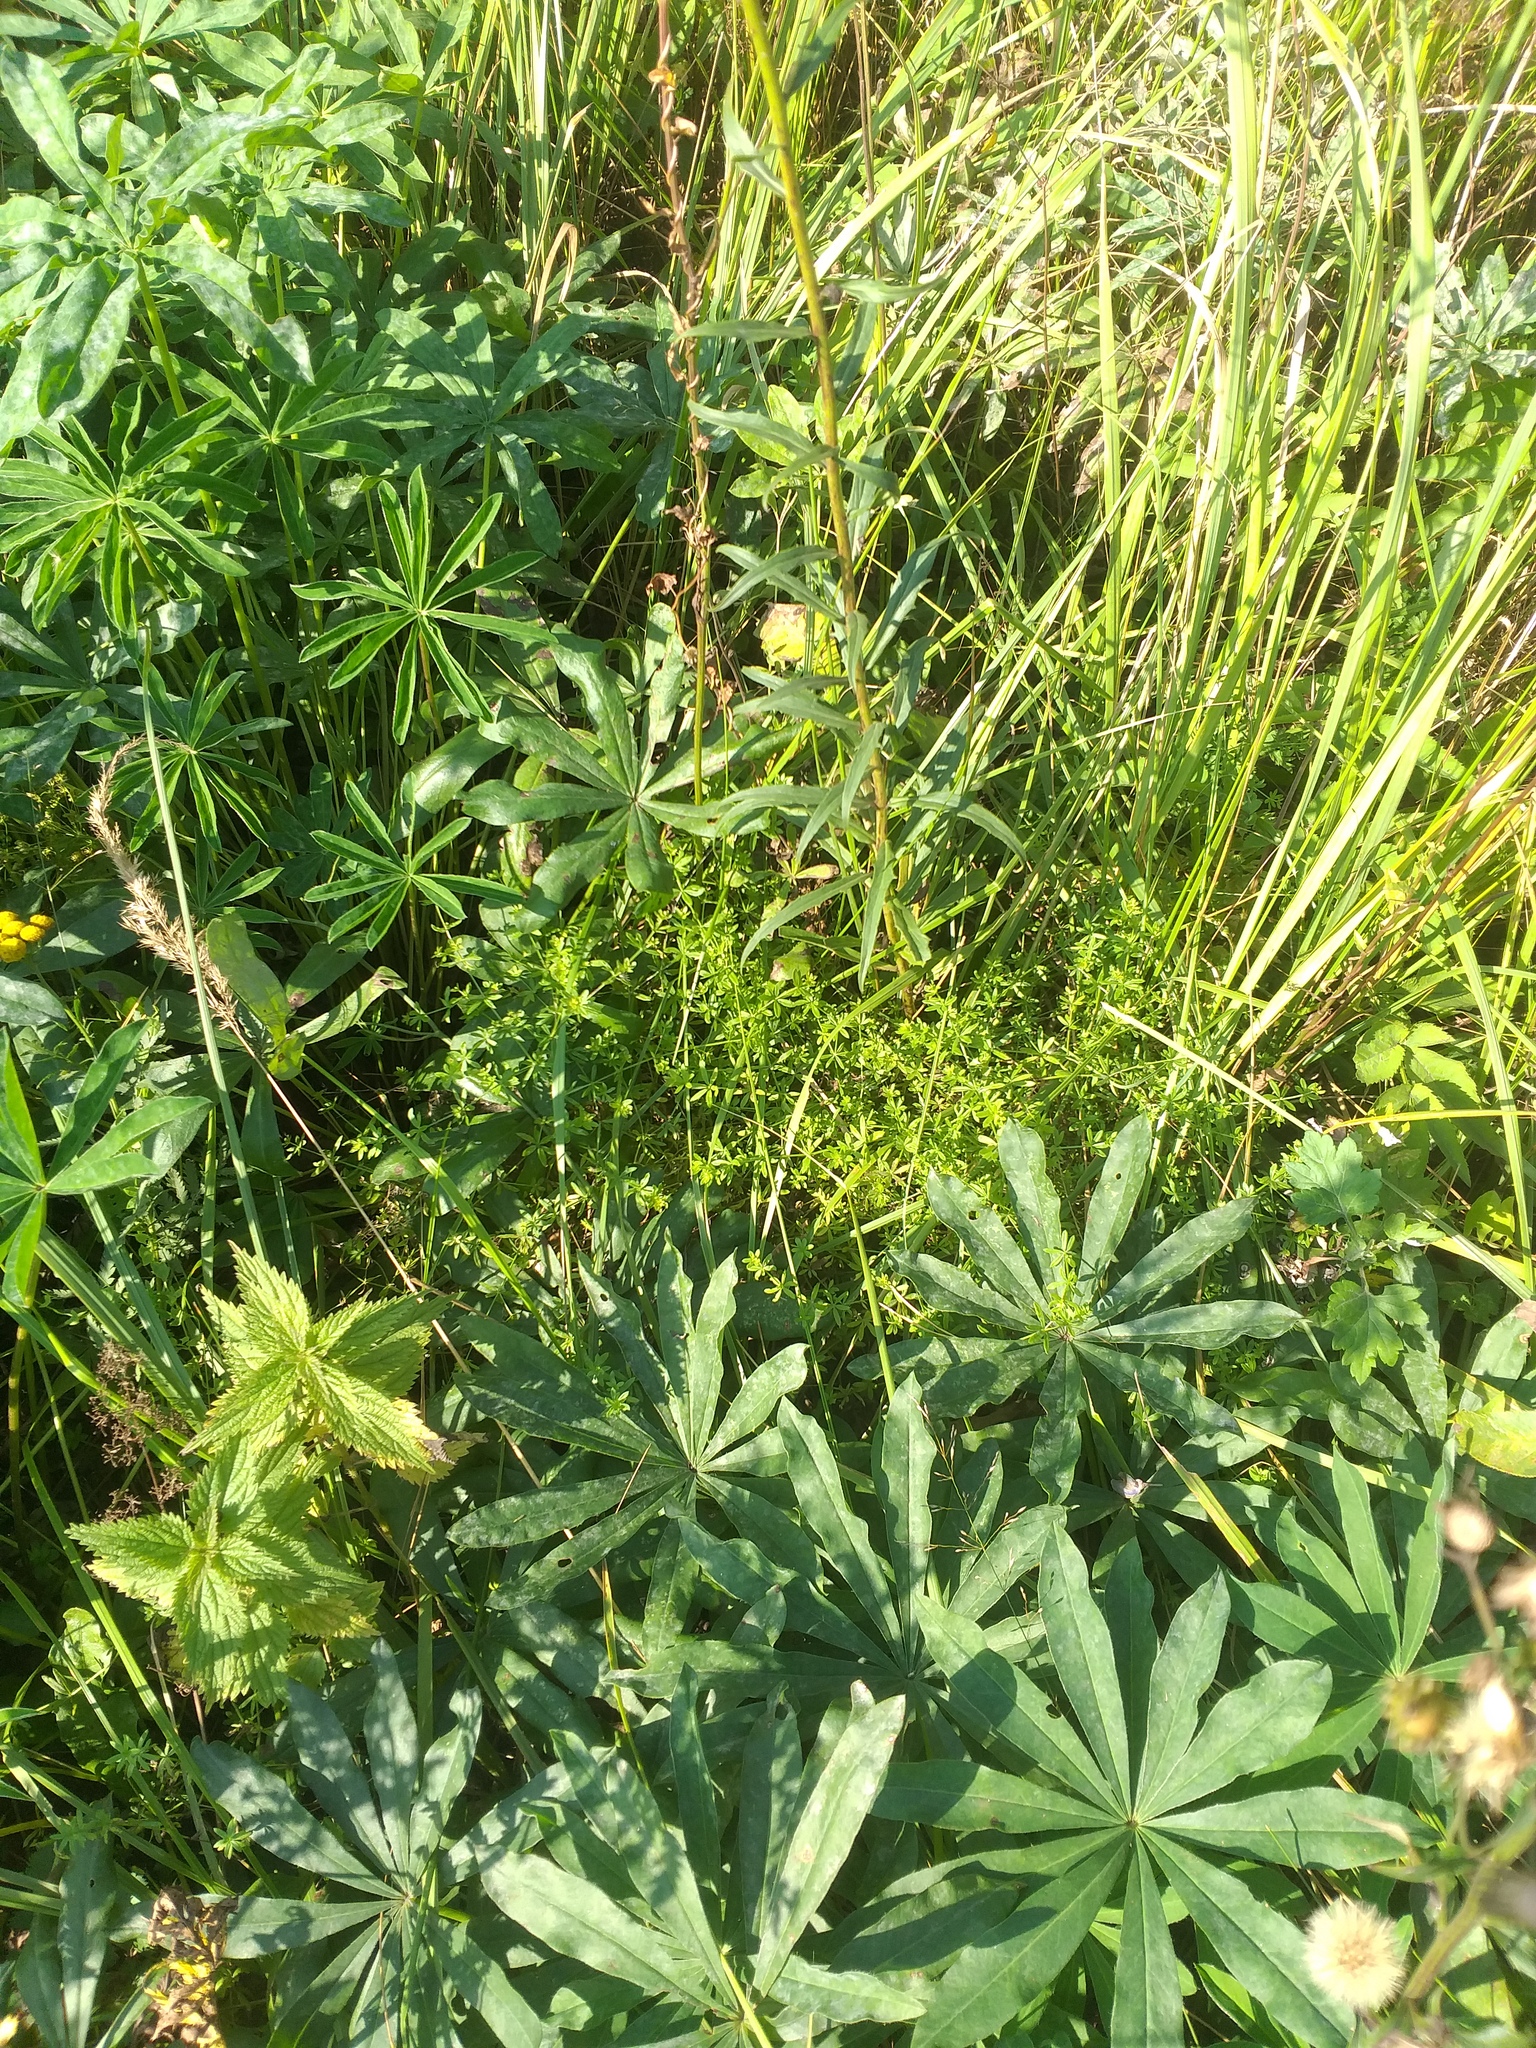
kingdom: Plantae
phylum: Tracheophyta
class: Magnoliopsida
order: Gentianales
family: Rubiaceae
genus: Galium
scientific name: Galium mollugo
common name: Hedge bedstraw
